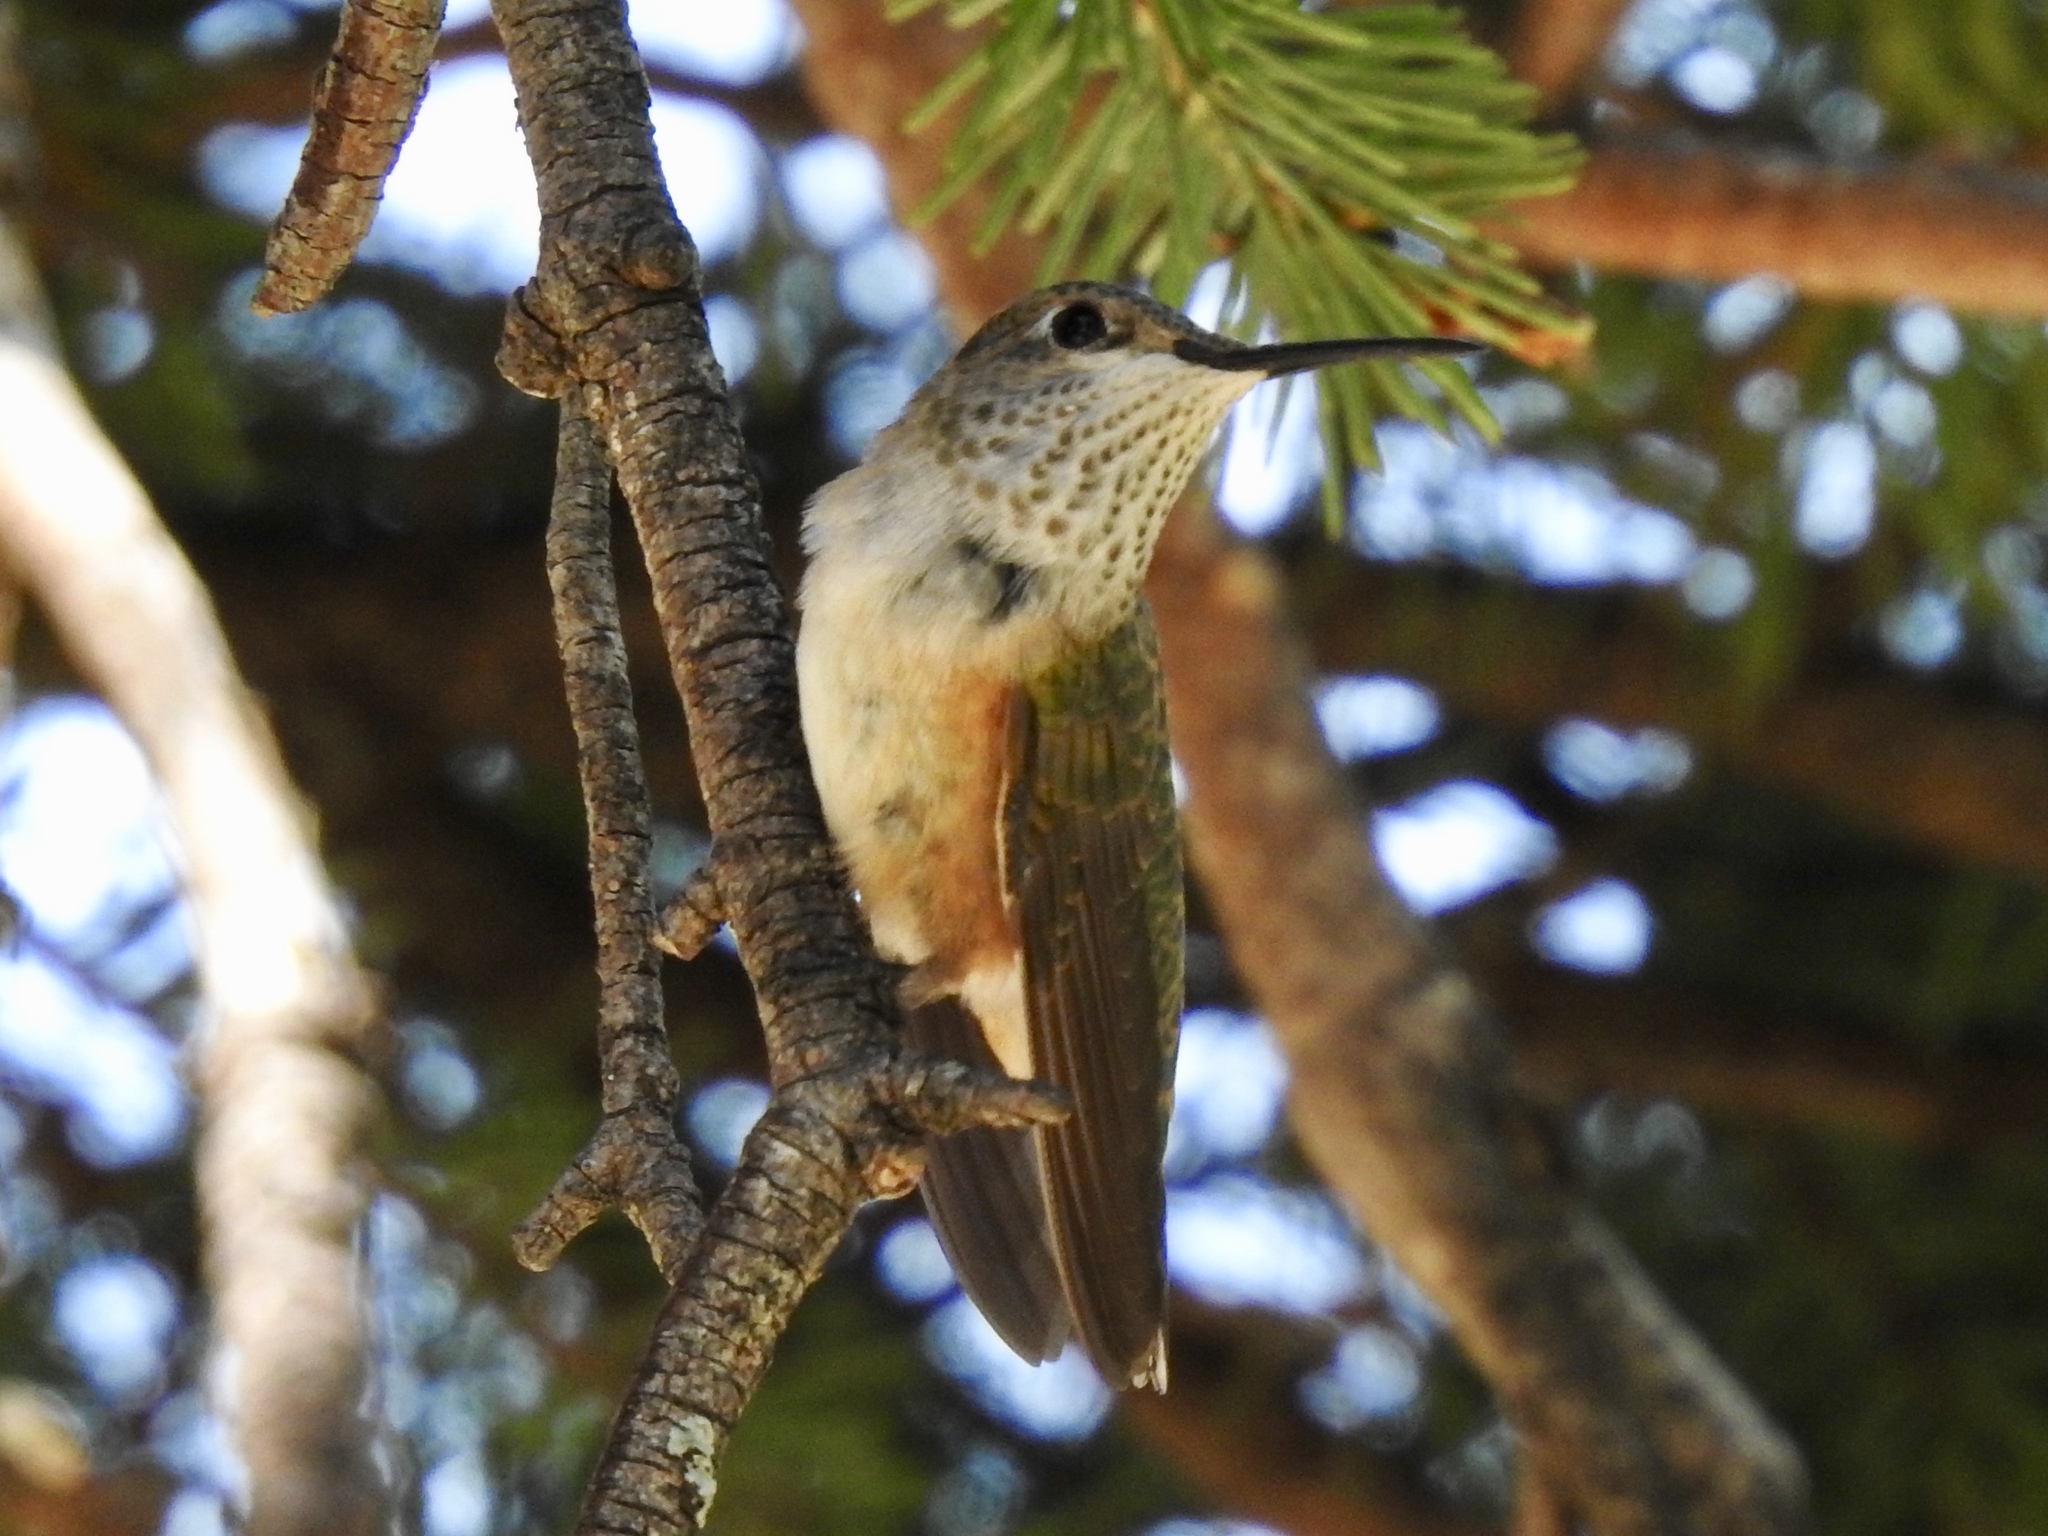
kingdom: Animalia
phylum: Chordata
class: Aves
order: Apodiformes
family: Trochilidae
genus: Selasphorus
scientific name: Selasphorus platycercus
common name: Broad-tailed hummingbird
